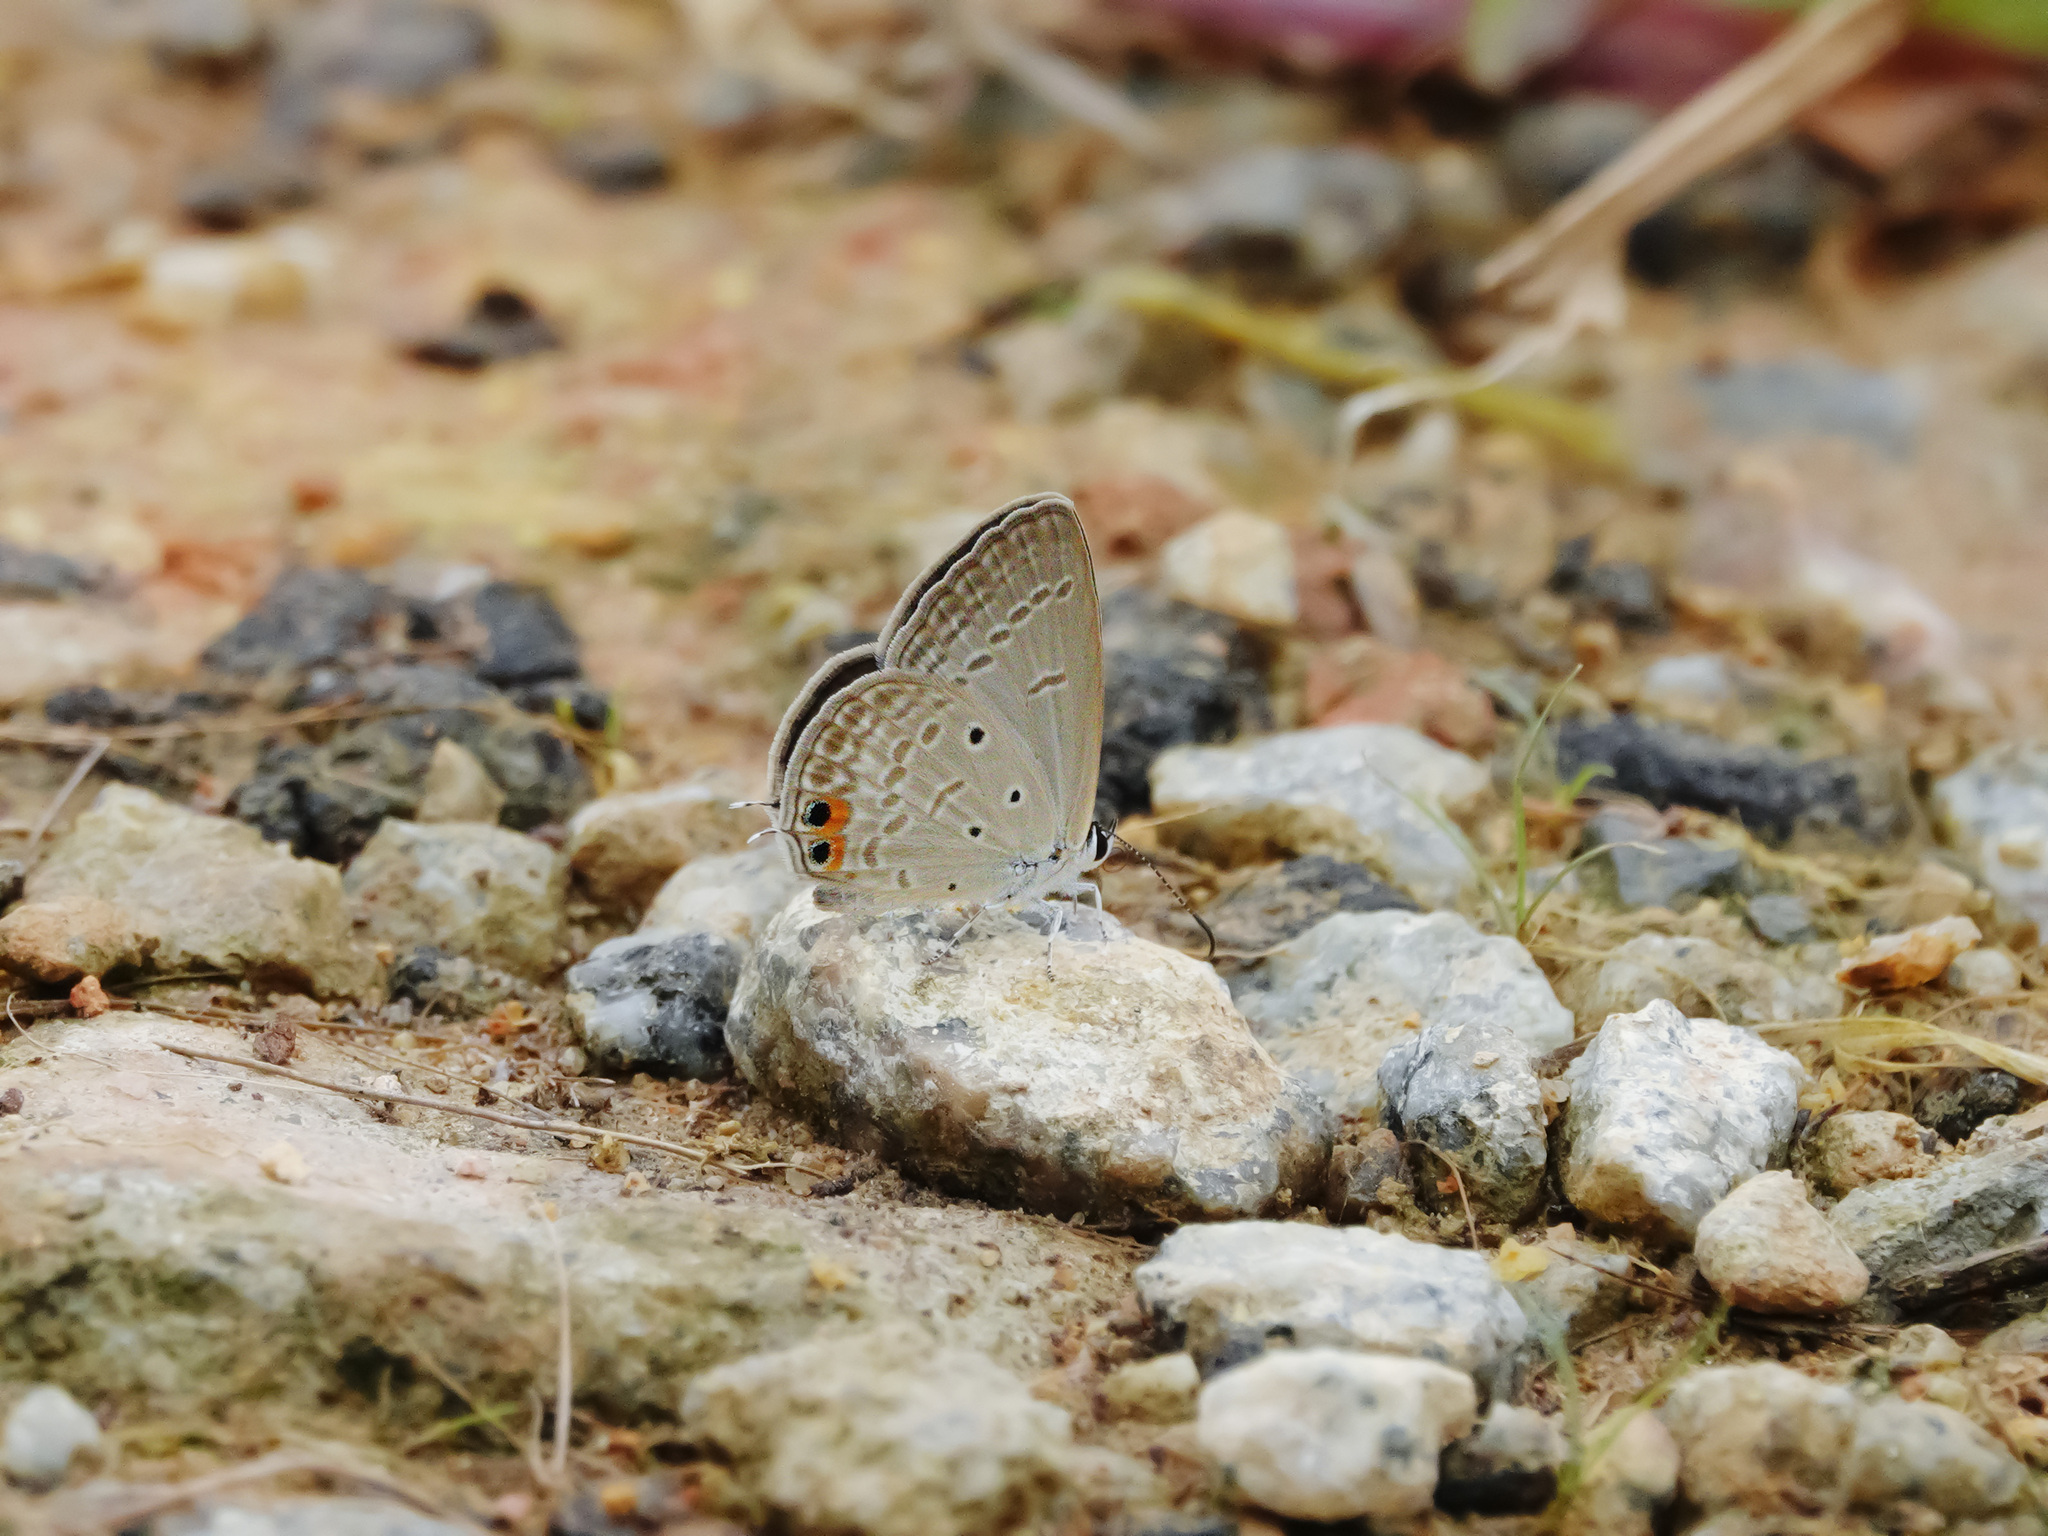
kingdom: Animalia
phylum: Arthropoda
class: Insecta
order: Lepidoptera
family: Lycaenidae
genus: Euchrysops
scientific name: Euchrysops cnejus
